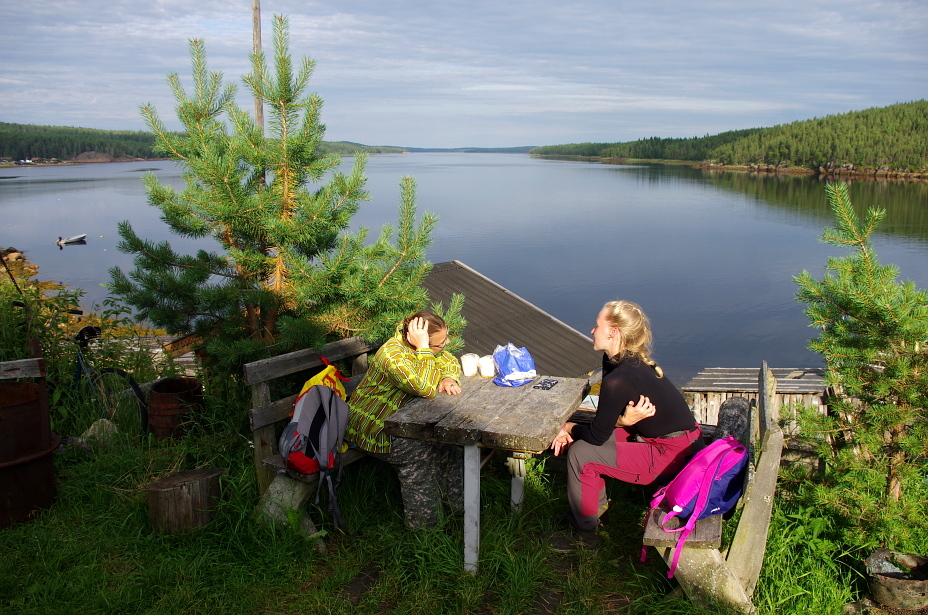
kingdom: Plantae
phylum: Tracheophyta
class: Pinopsida
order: Pinales
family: Pinaceae
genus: Pinus
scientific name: Pinus sylvestris
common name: Scots pine
